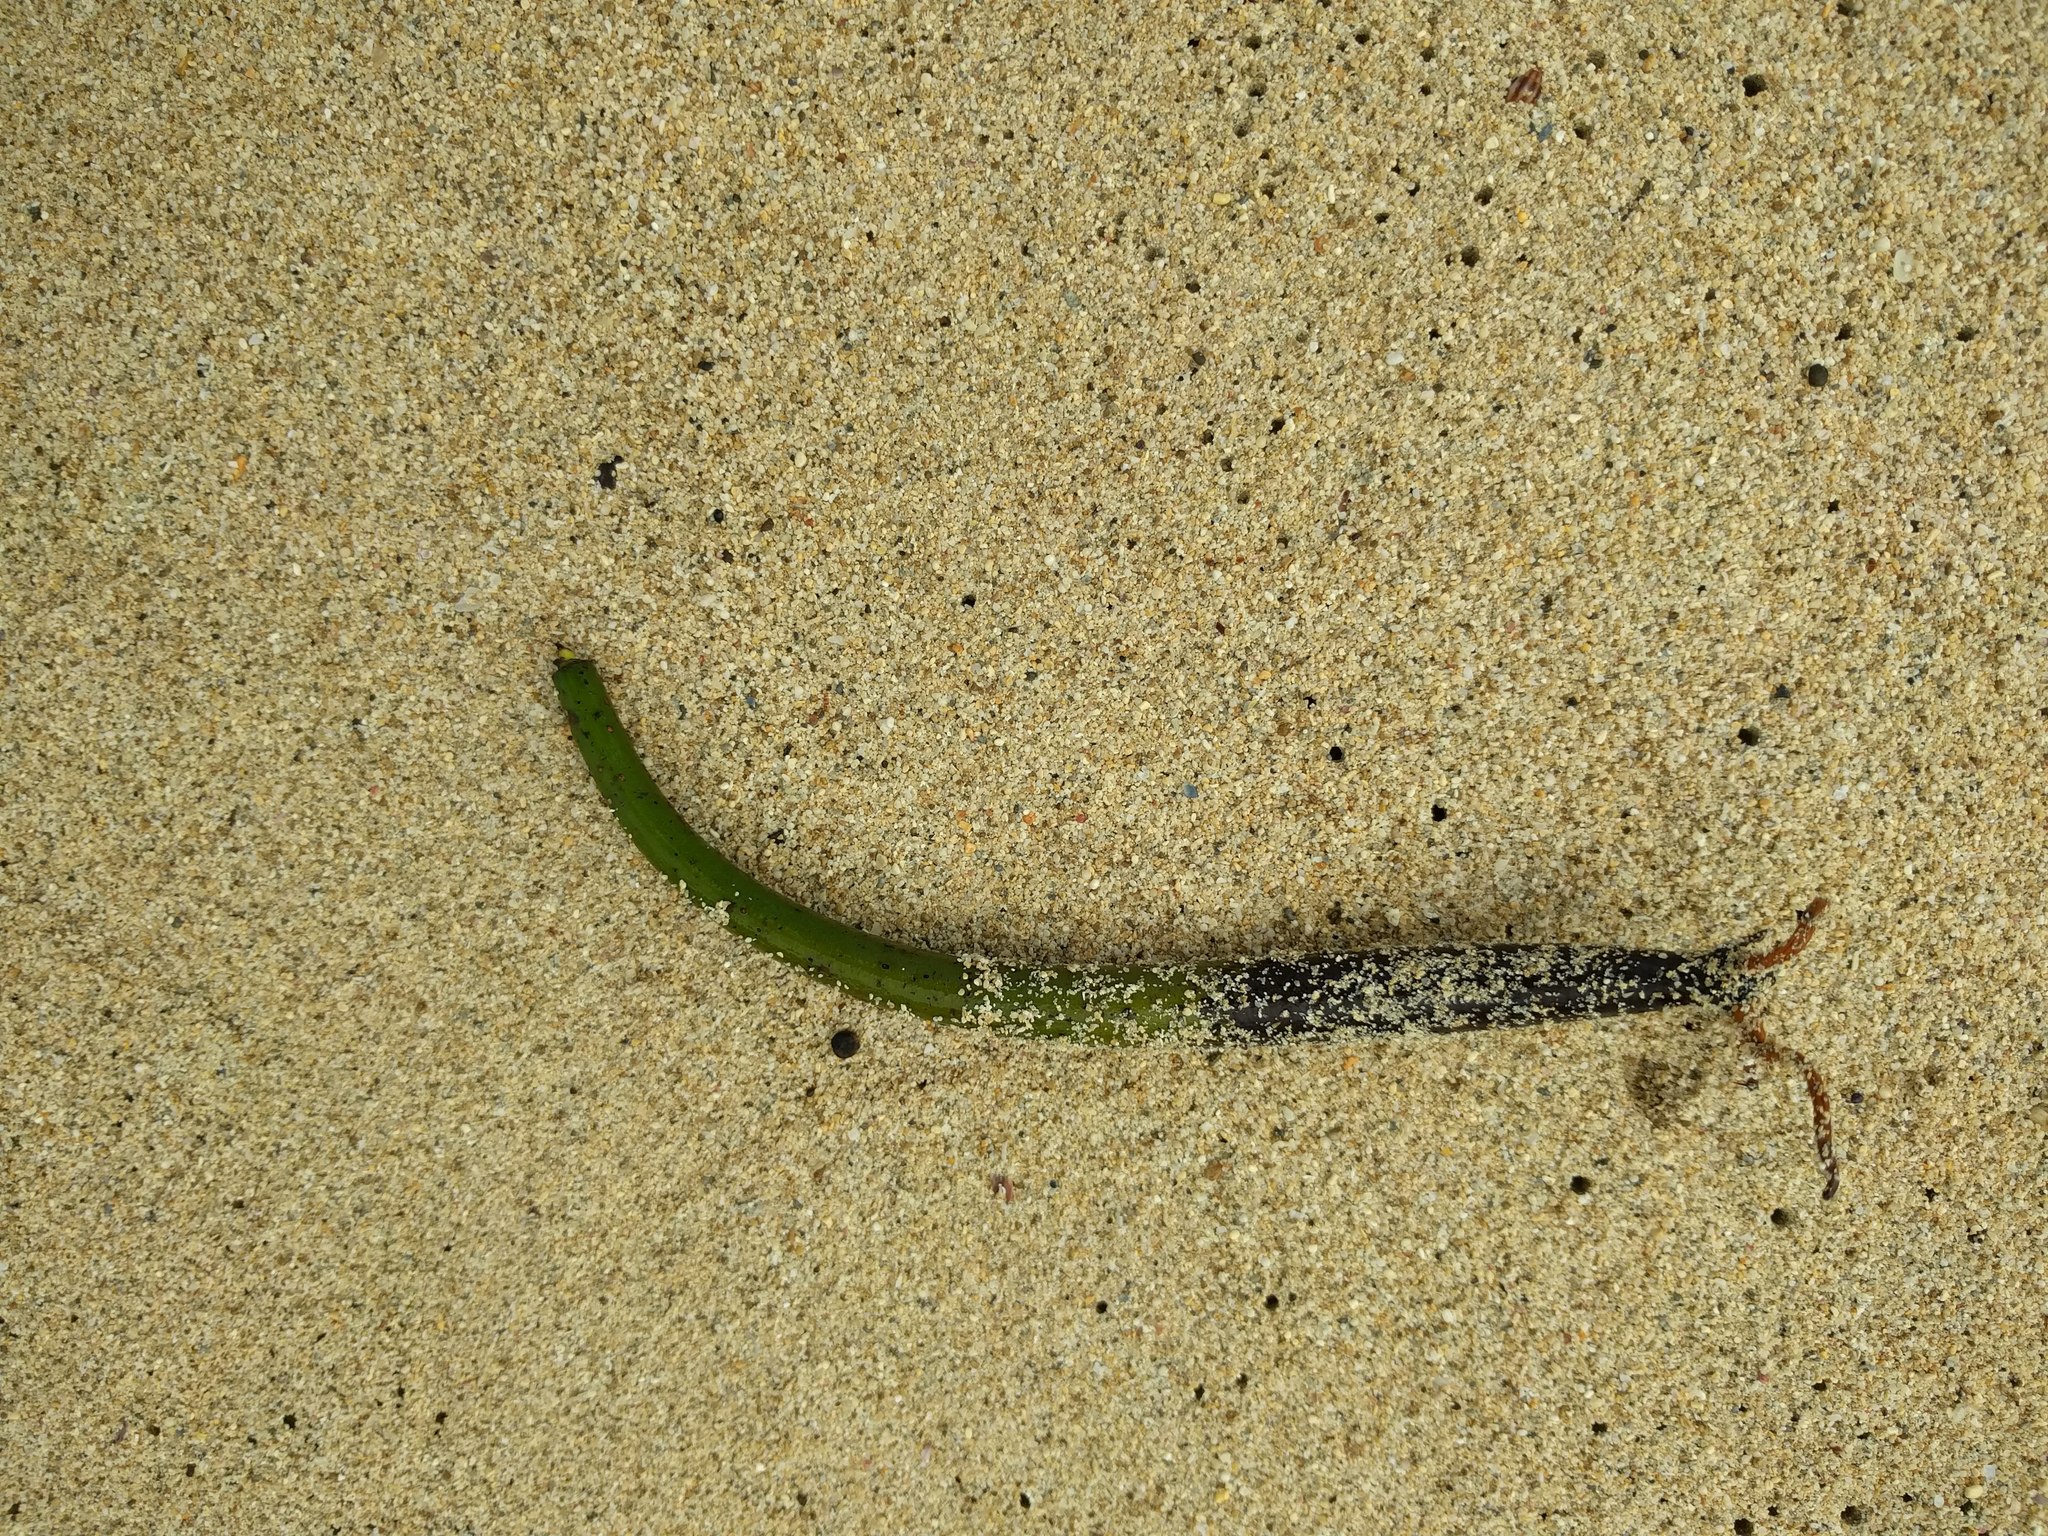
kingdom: Plantae
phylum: Tracheophyta
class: Magnoliopsida
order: Malpighiales
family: Rhizophoraceae
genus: Rhizophora
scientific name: Rhizophora mangle
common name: Red mangrove
